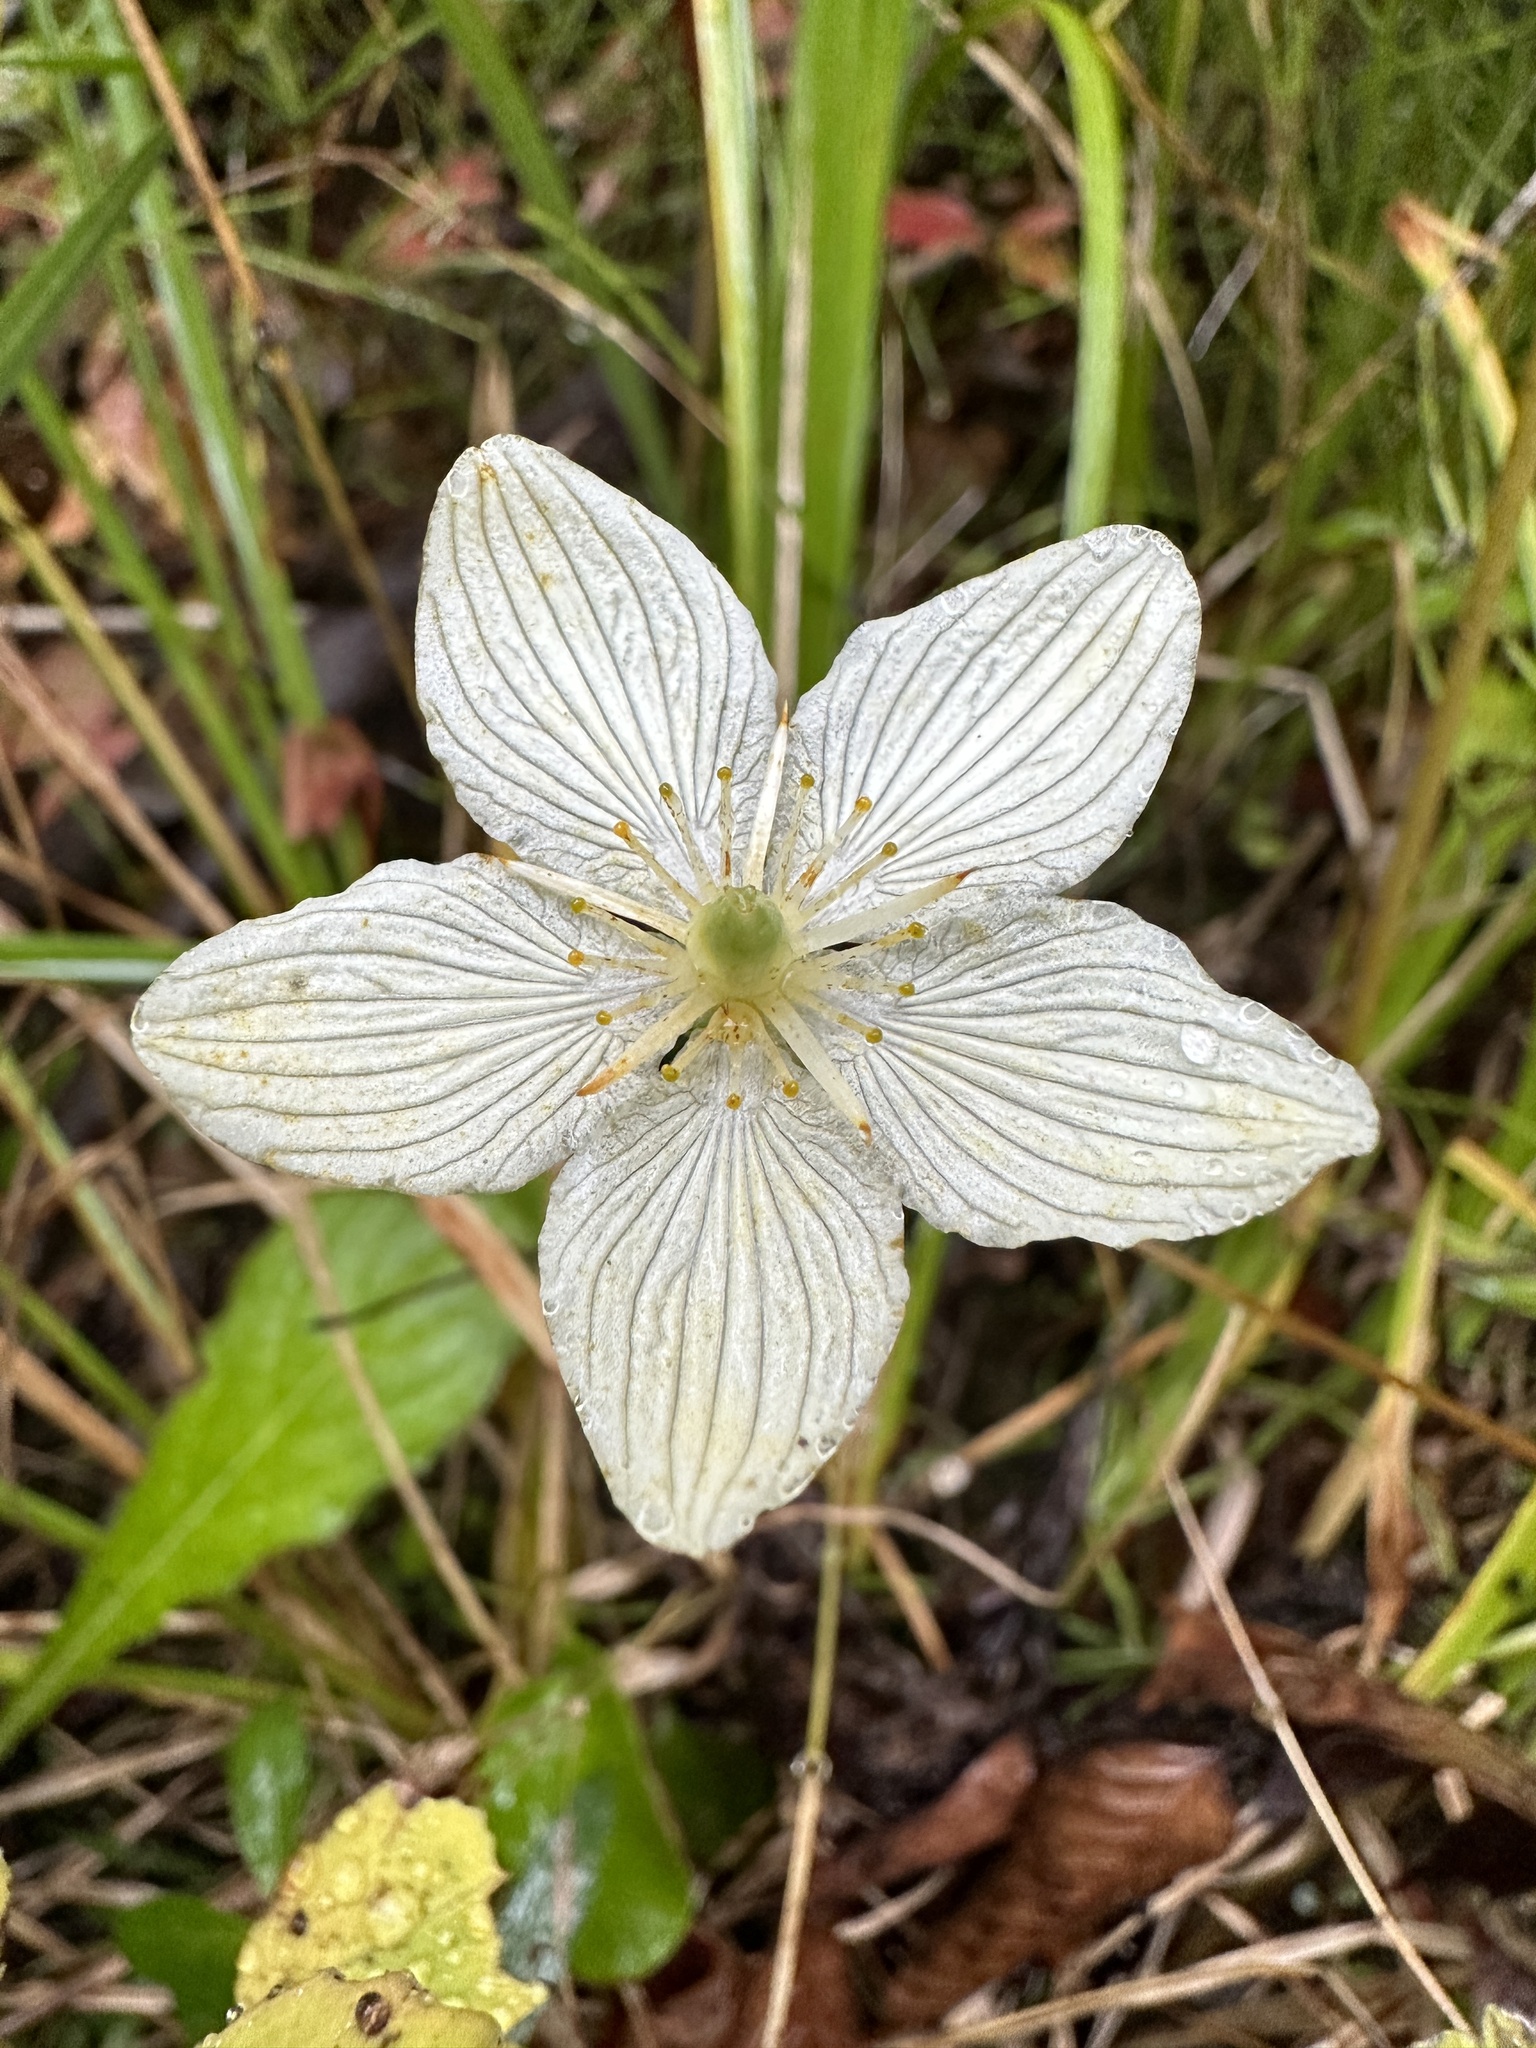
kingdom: Plantae
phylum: Tracheophyta
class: Magnoliopsida
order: Celastrales
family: Parnassiaceae
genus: Parnassia
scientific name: Parnassia glauca
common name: American grass-of-parnassus
